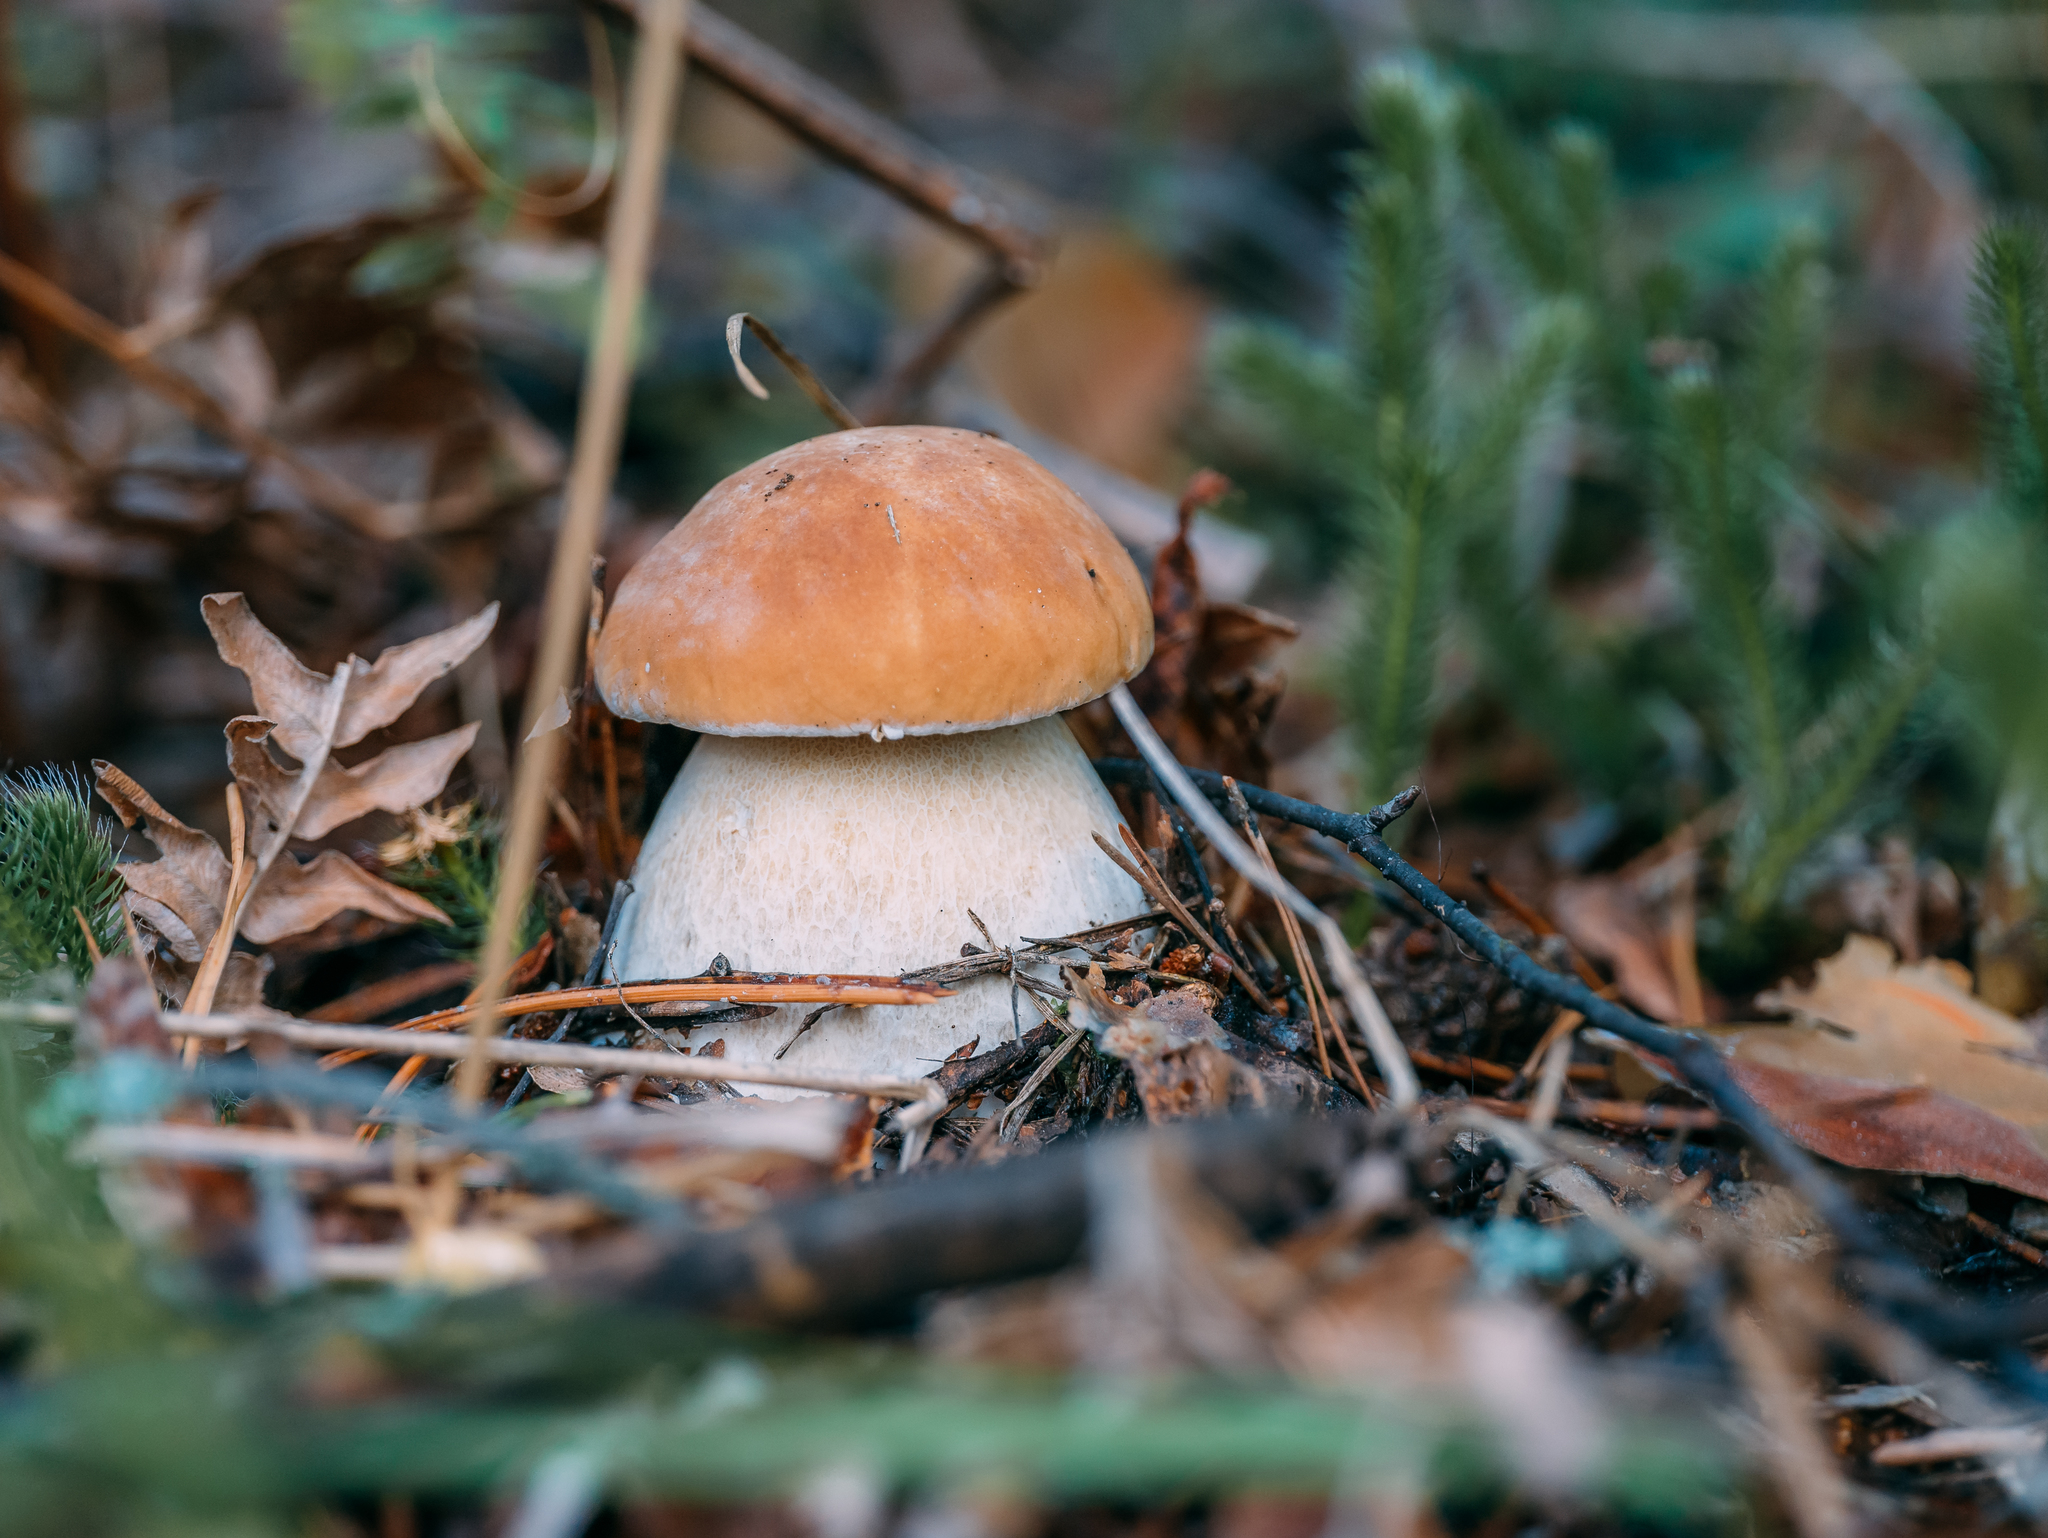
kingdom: Fungi
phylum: Basidiomycota
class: Agaricomycetes
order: Boletales
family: Boletaceae
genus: Boletus
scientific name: Boletus edulis
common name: Cep
